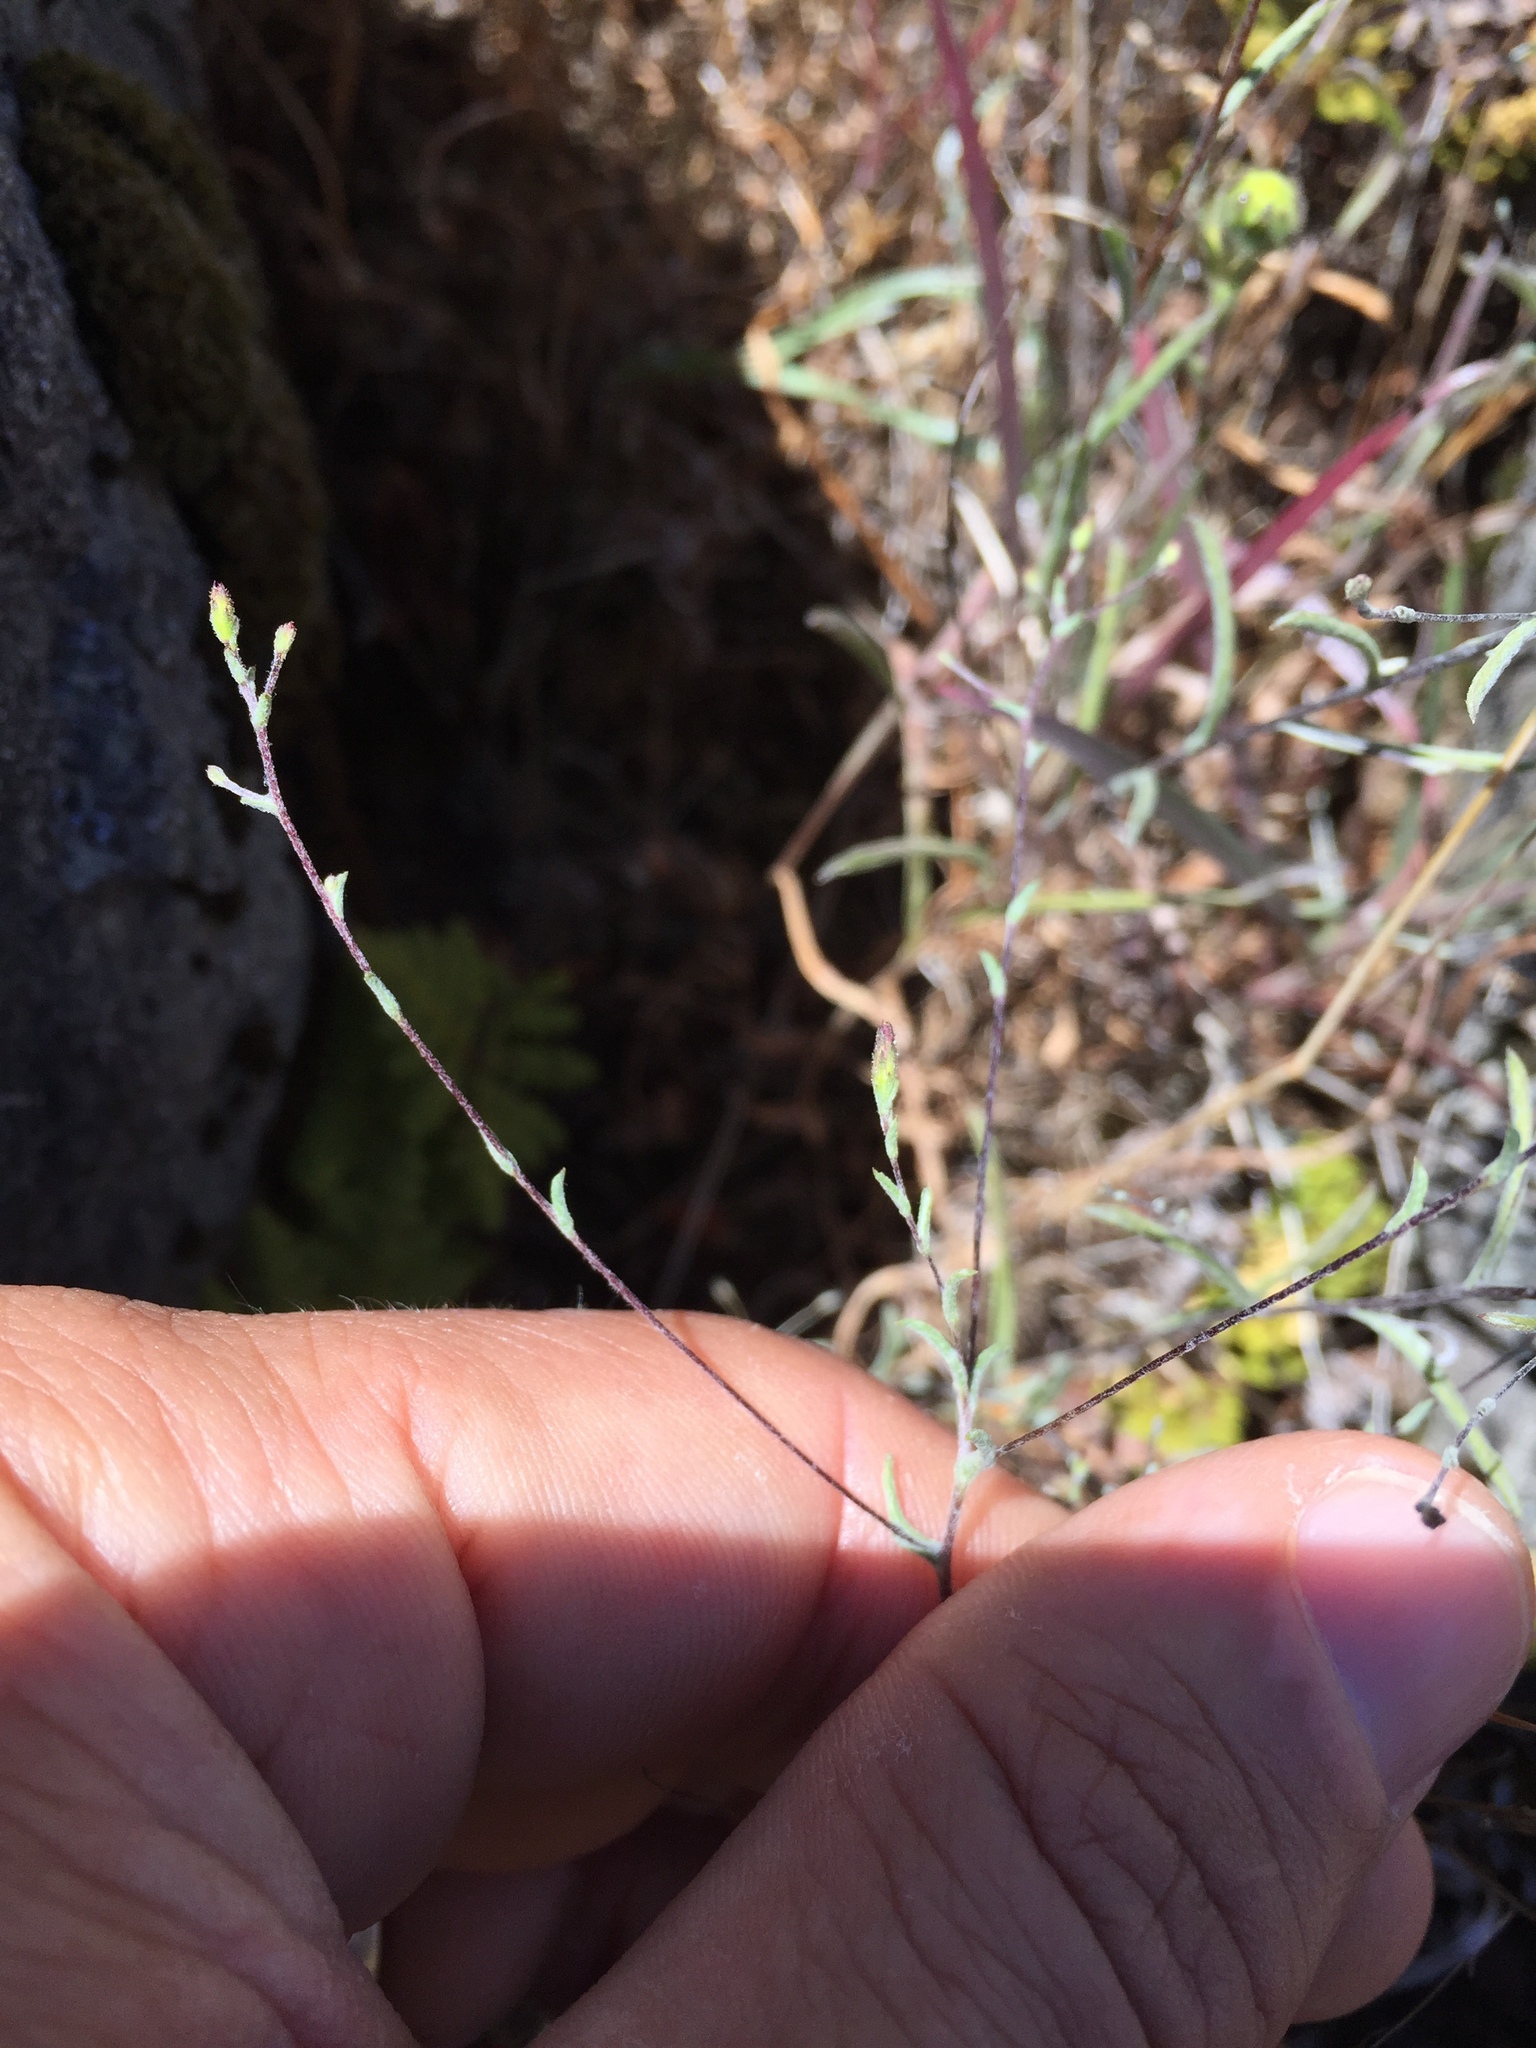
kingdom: Plantae
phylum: Tracheophyta
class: Magnoliopsida
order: Asterales
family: Asteraceae
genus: Lessingia
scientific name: Lessingia micradenia
